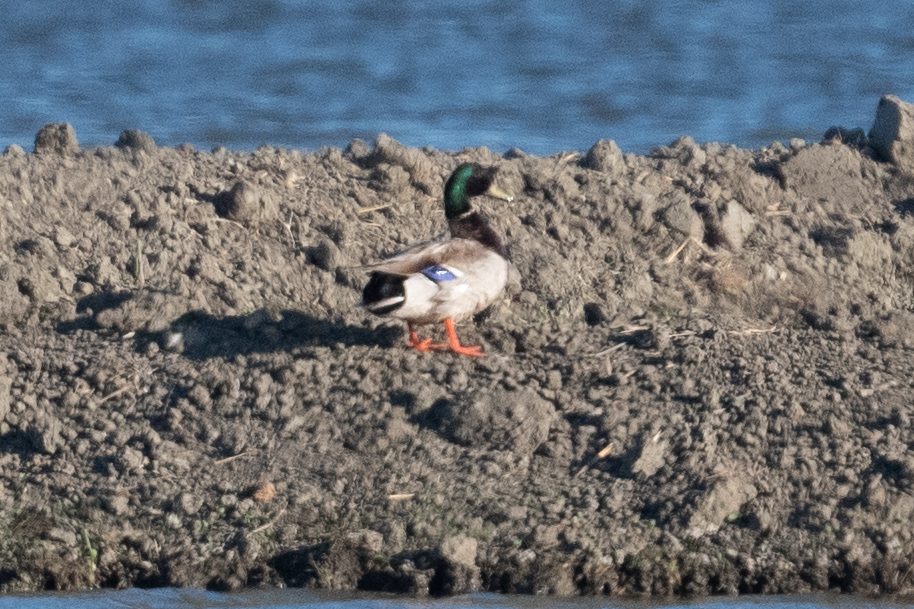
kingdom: Animalia
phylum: Chordata
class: Aves
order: Anseriformes
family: Anatidae
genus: Anas
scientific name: Anas platyrhynchos
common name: Mallard
